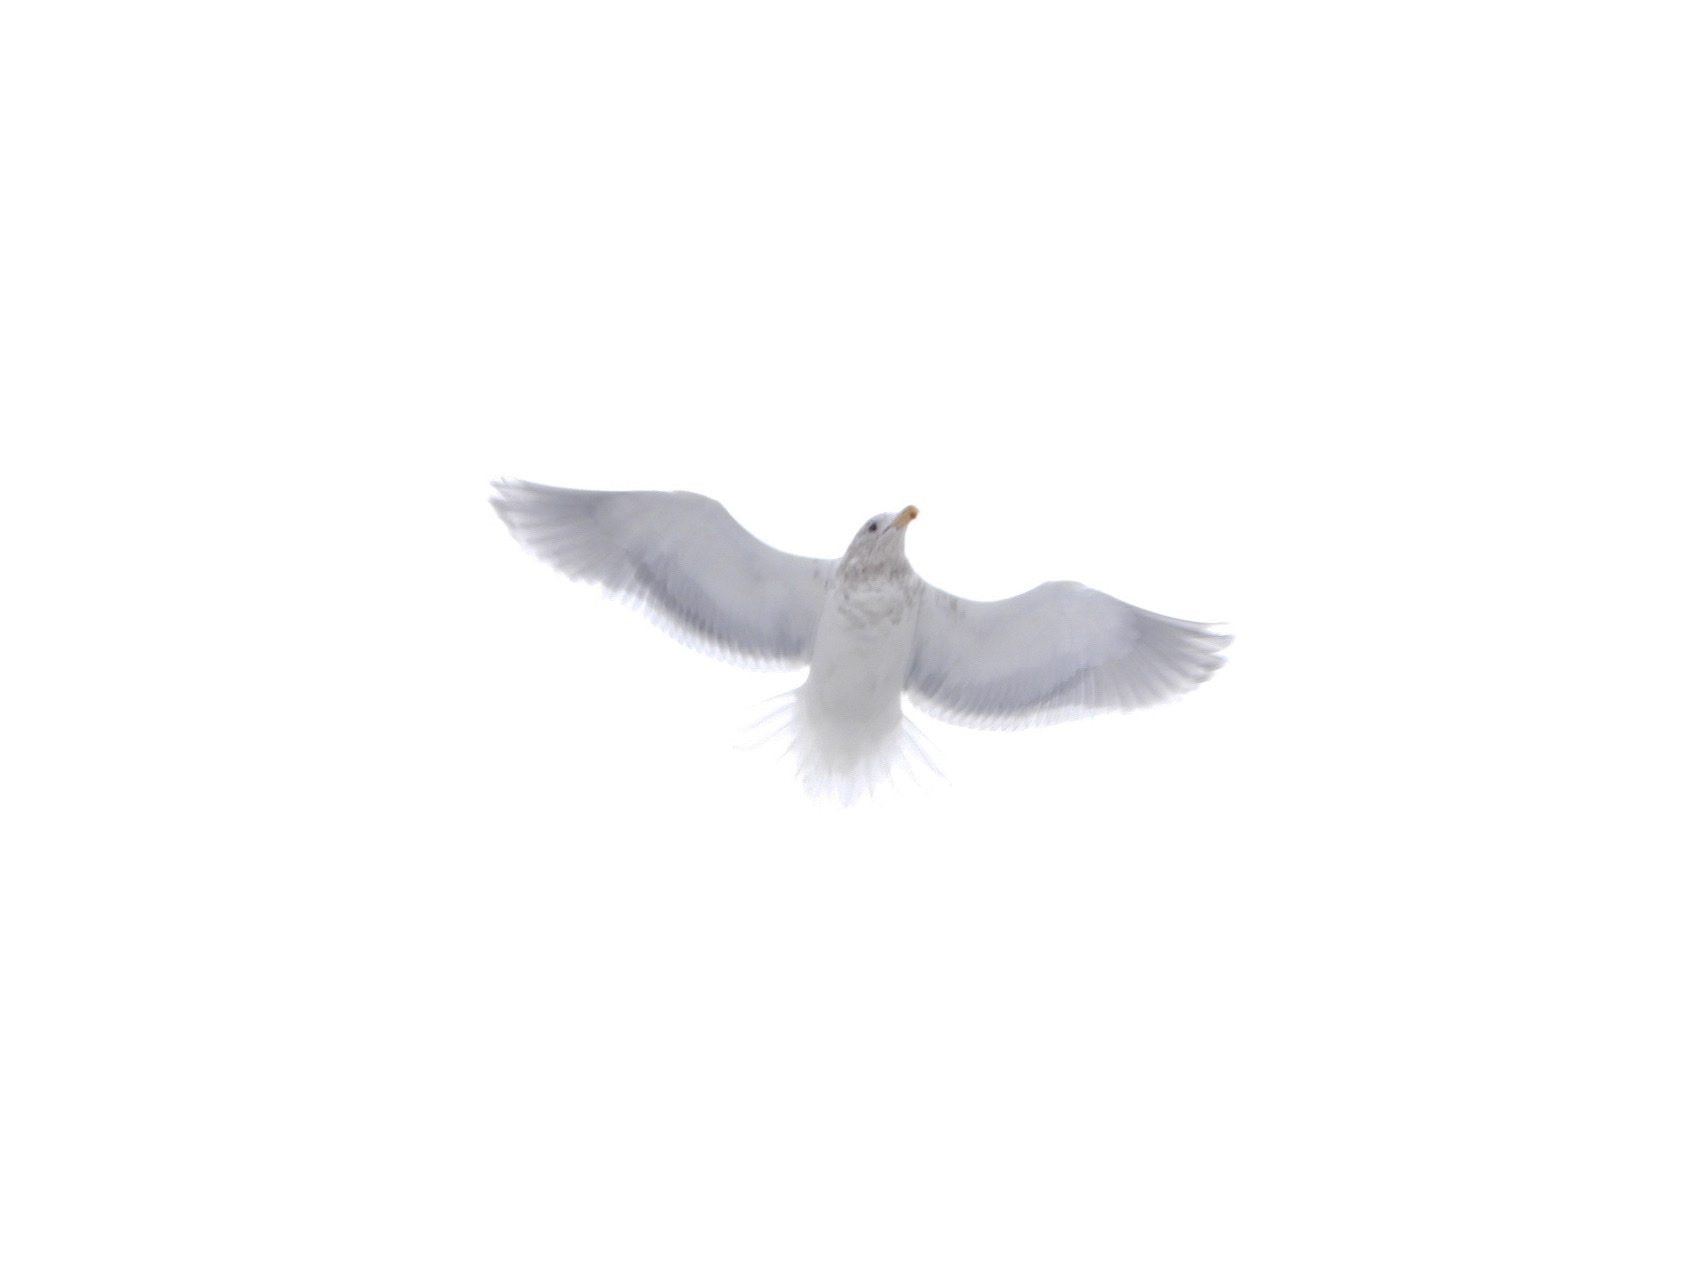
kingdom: Animalia
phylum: Chordata
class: Aves
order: Charadriiformes
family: Laridae
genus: Larus
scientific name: Larus glaucescens
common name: Glaucous-winged gull
